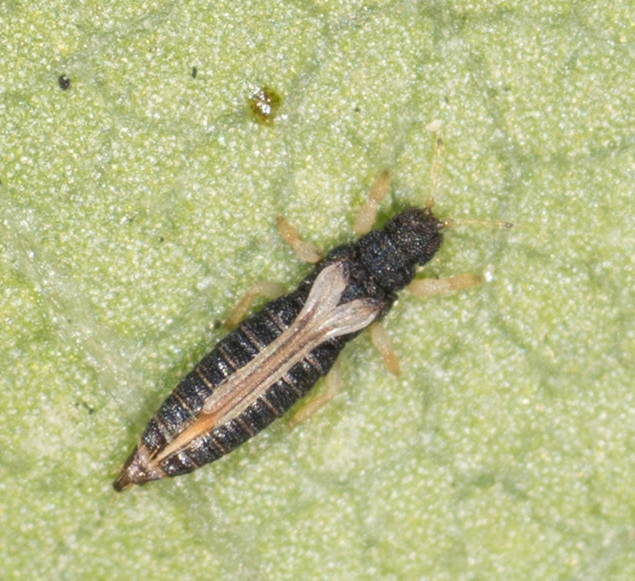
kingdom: Animalia
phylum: Arthropoda
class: Insecta
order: Thysanoptera
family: Thripidae
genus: Heliothrips
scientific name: Heliothrips haemorrhoidalis
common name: Thrips
